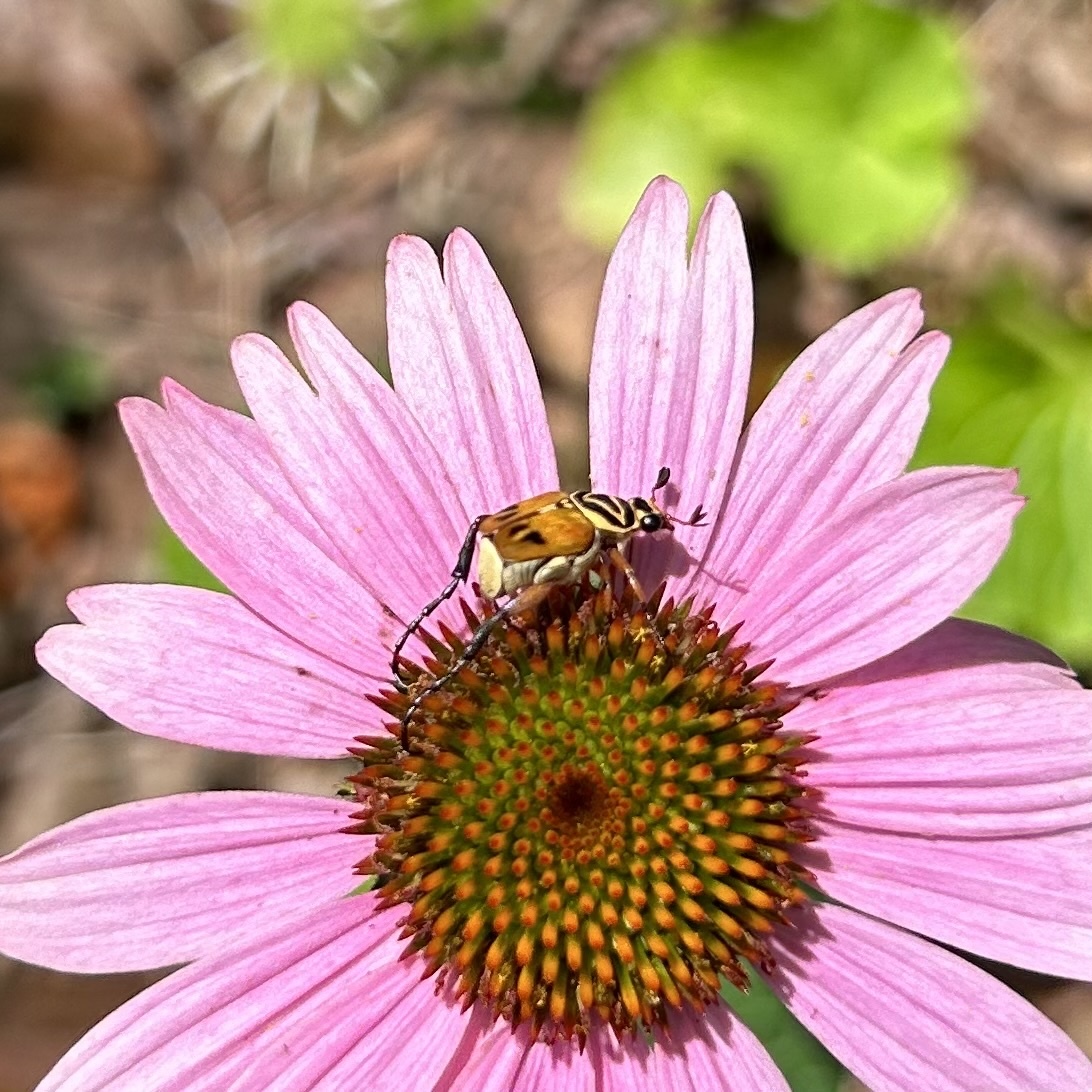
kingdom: Animalia
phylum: Arthropoda
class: Insecta
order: Coleoptera
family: Scarabaeidae
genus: Trigonopeltastes
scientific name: Trigonopeltastes delta
